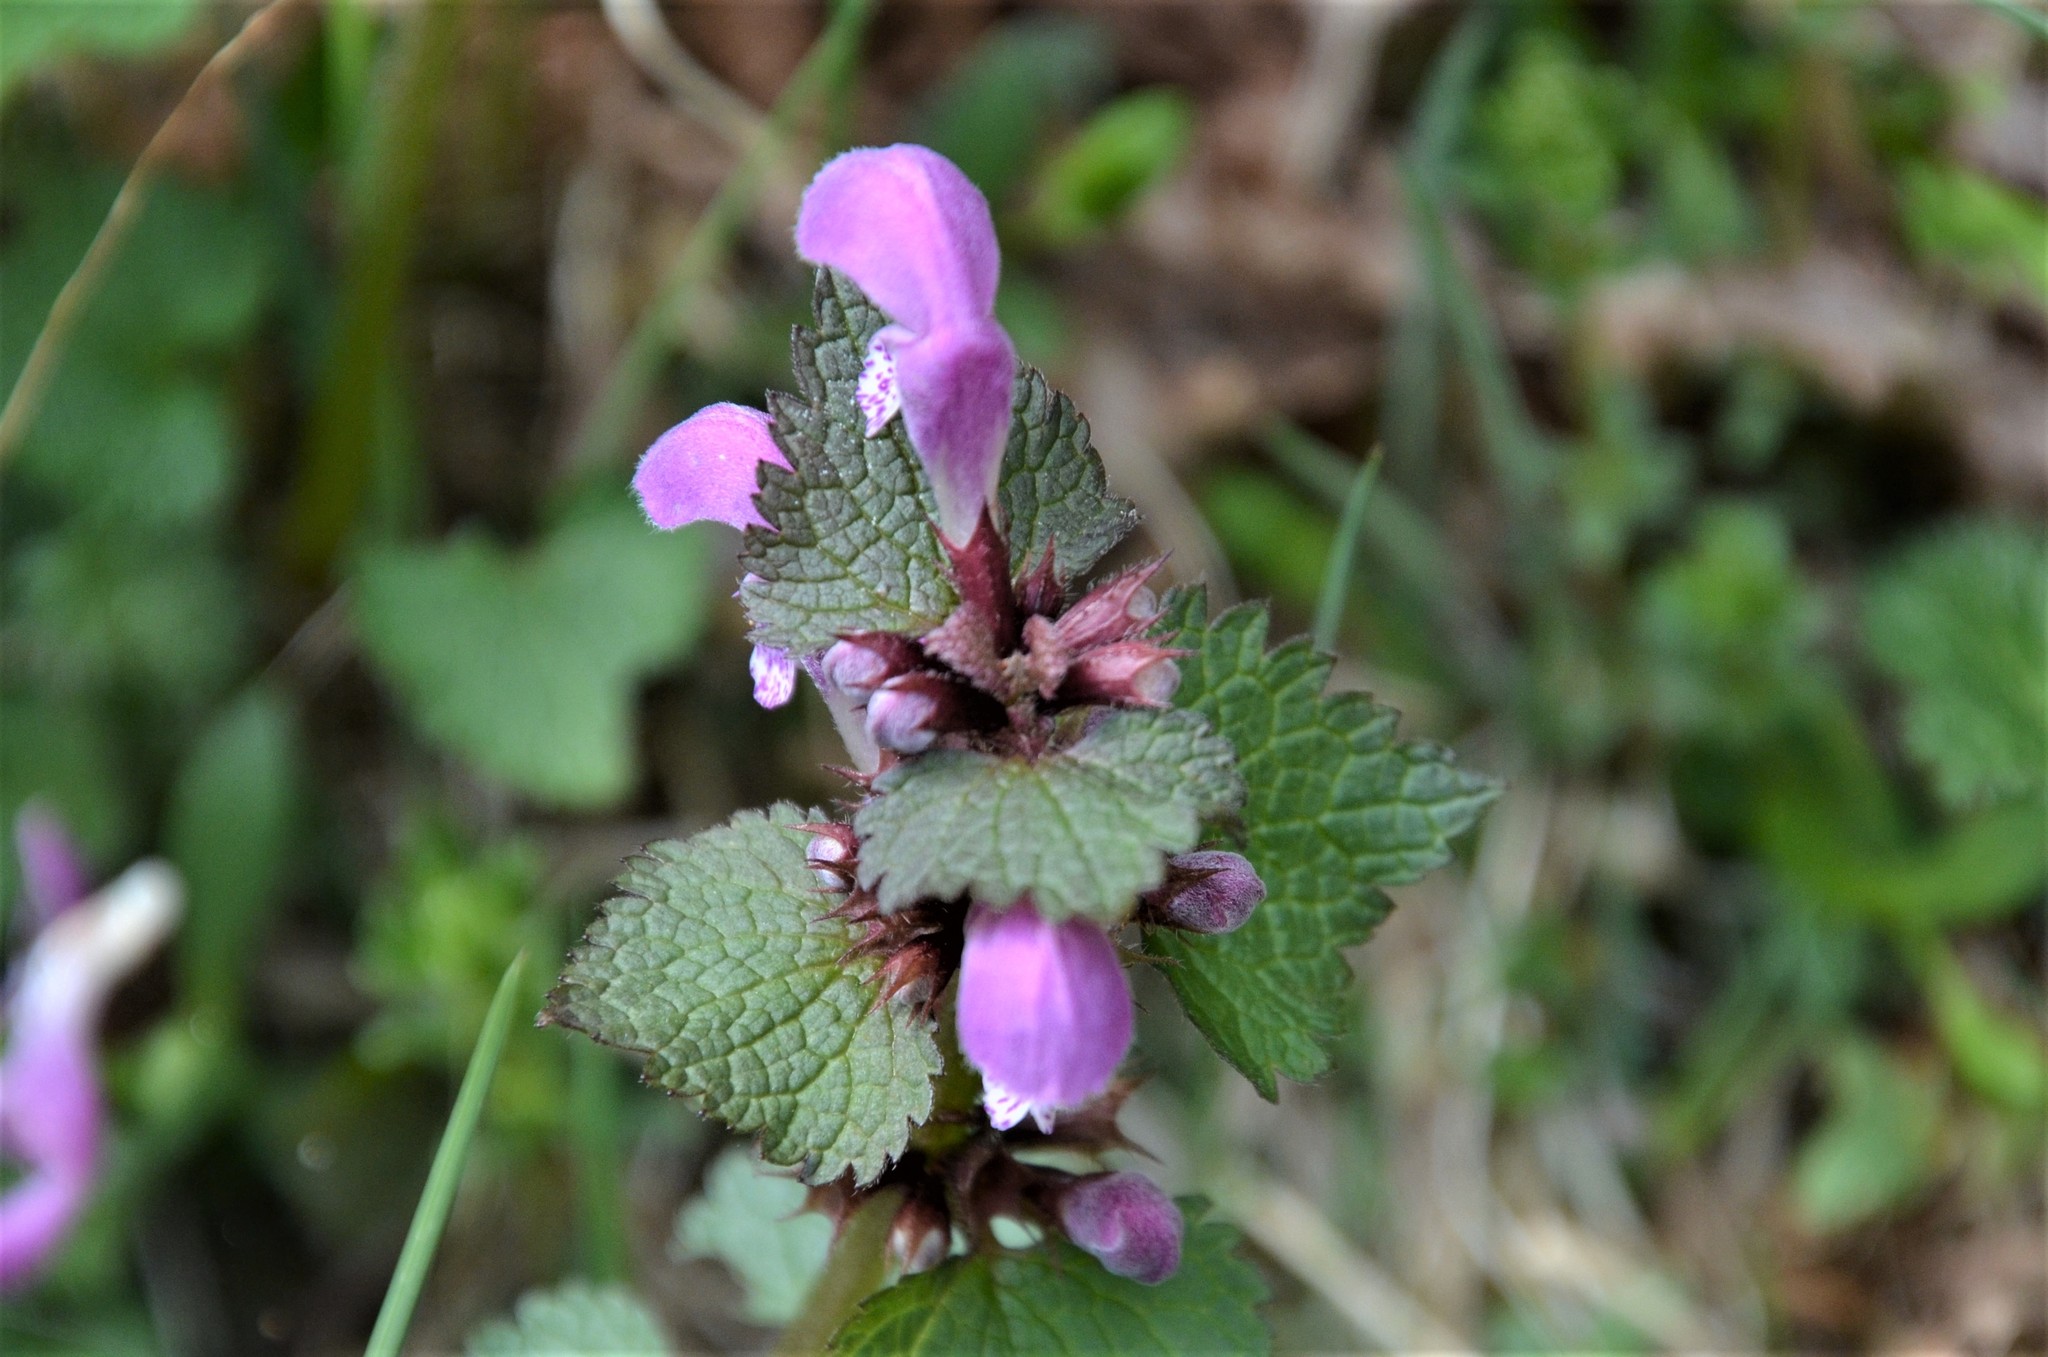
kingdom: Plantae
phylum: Tracheophyta
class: Magnoliopsida
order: Lamiales
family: Lamiaceae
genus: Lamium
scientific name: Lamium maculatum
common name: Spotted dead-nettle
